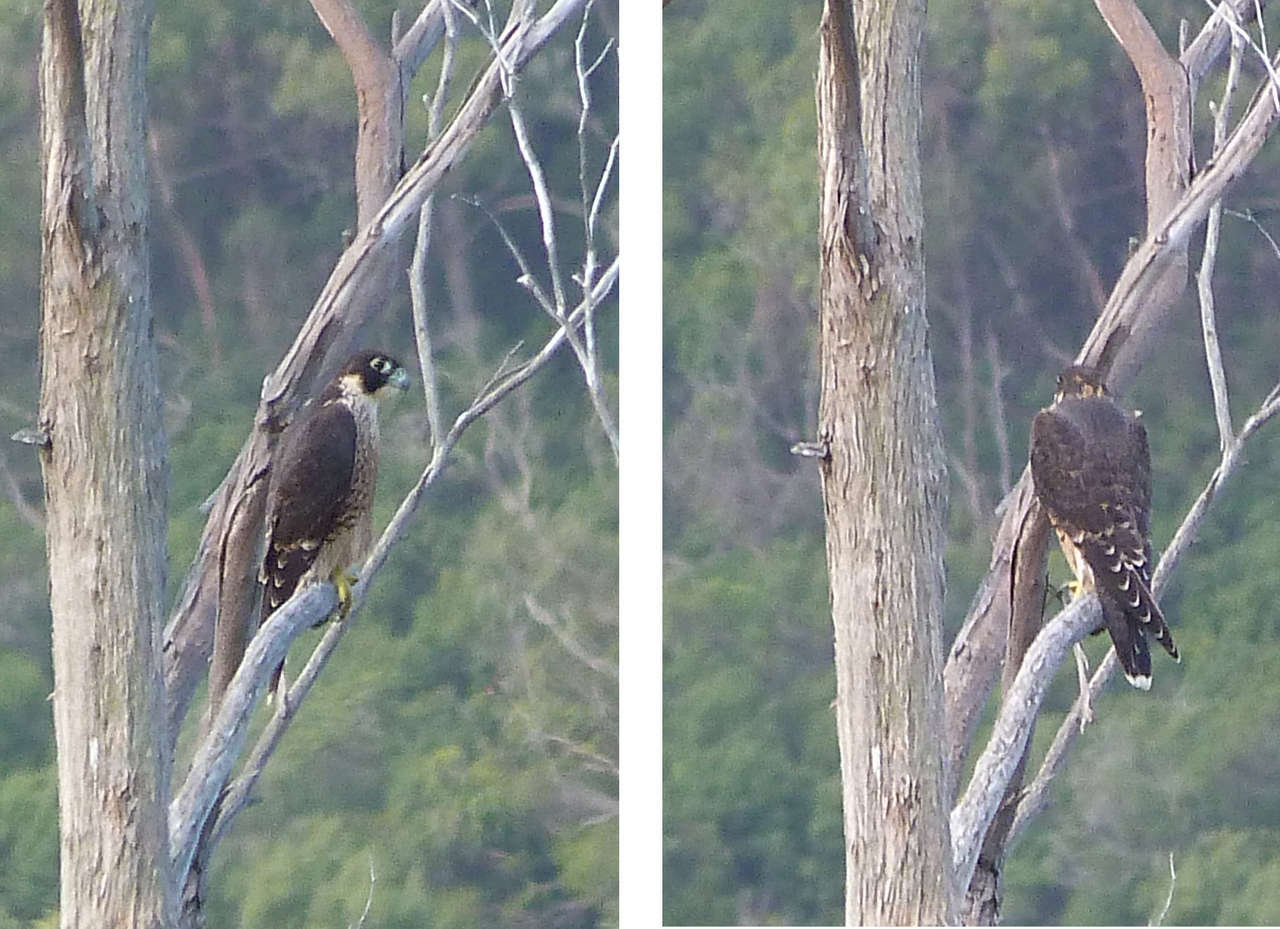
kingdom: Animalia
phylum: Chordata
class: Aves
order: Falconiformes
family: Falconidae
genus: Falco
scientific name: Falco peregrinus
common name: Peregrine falcon
